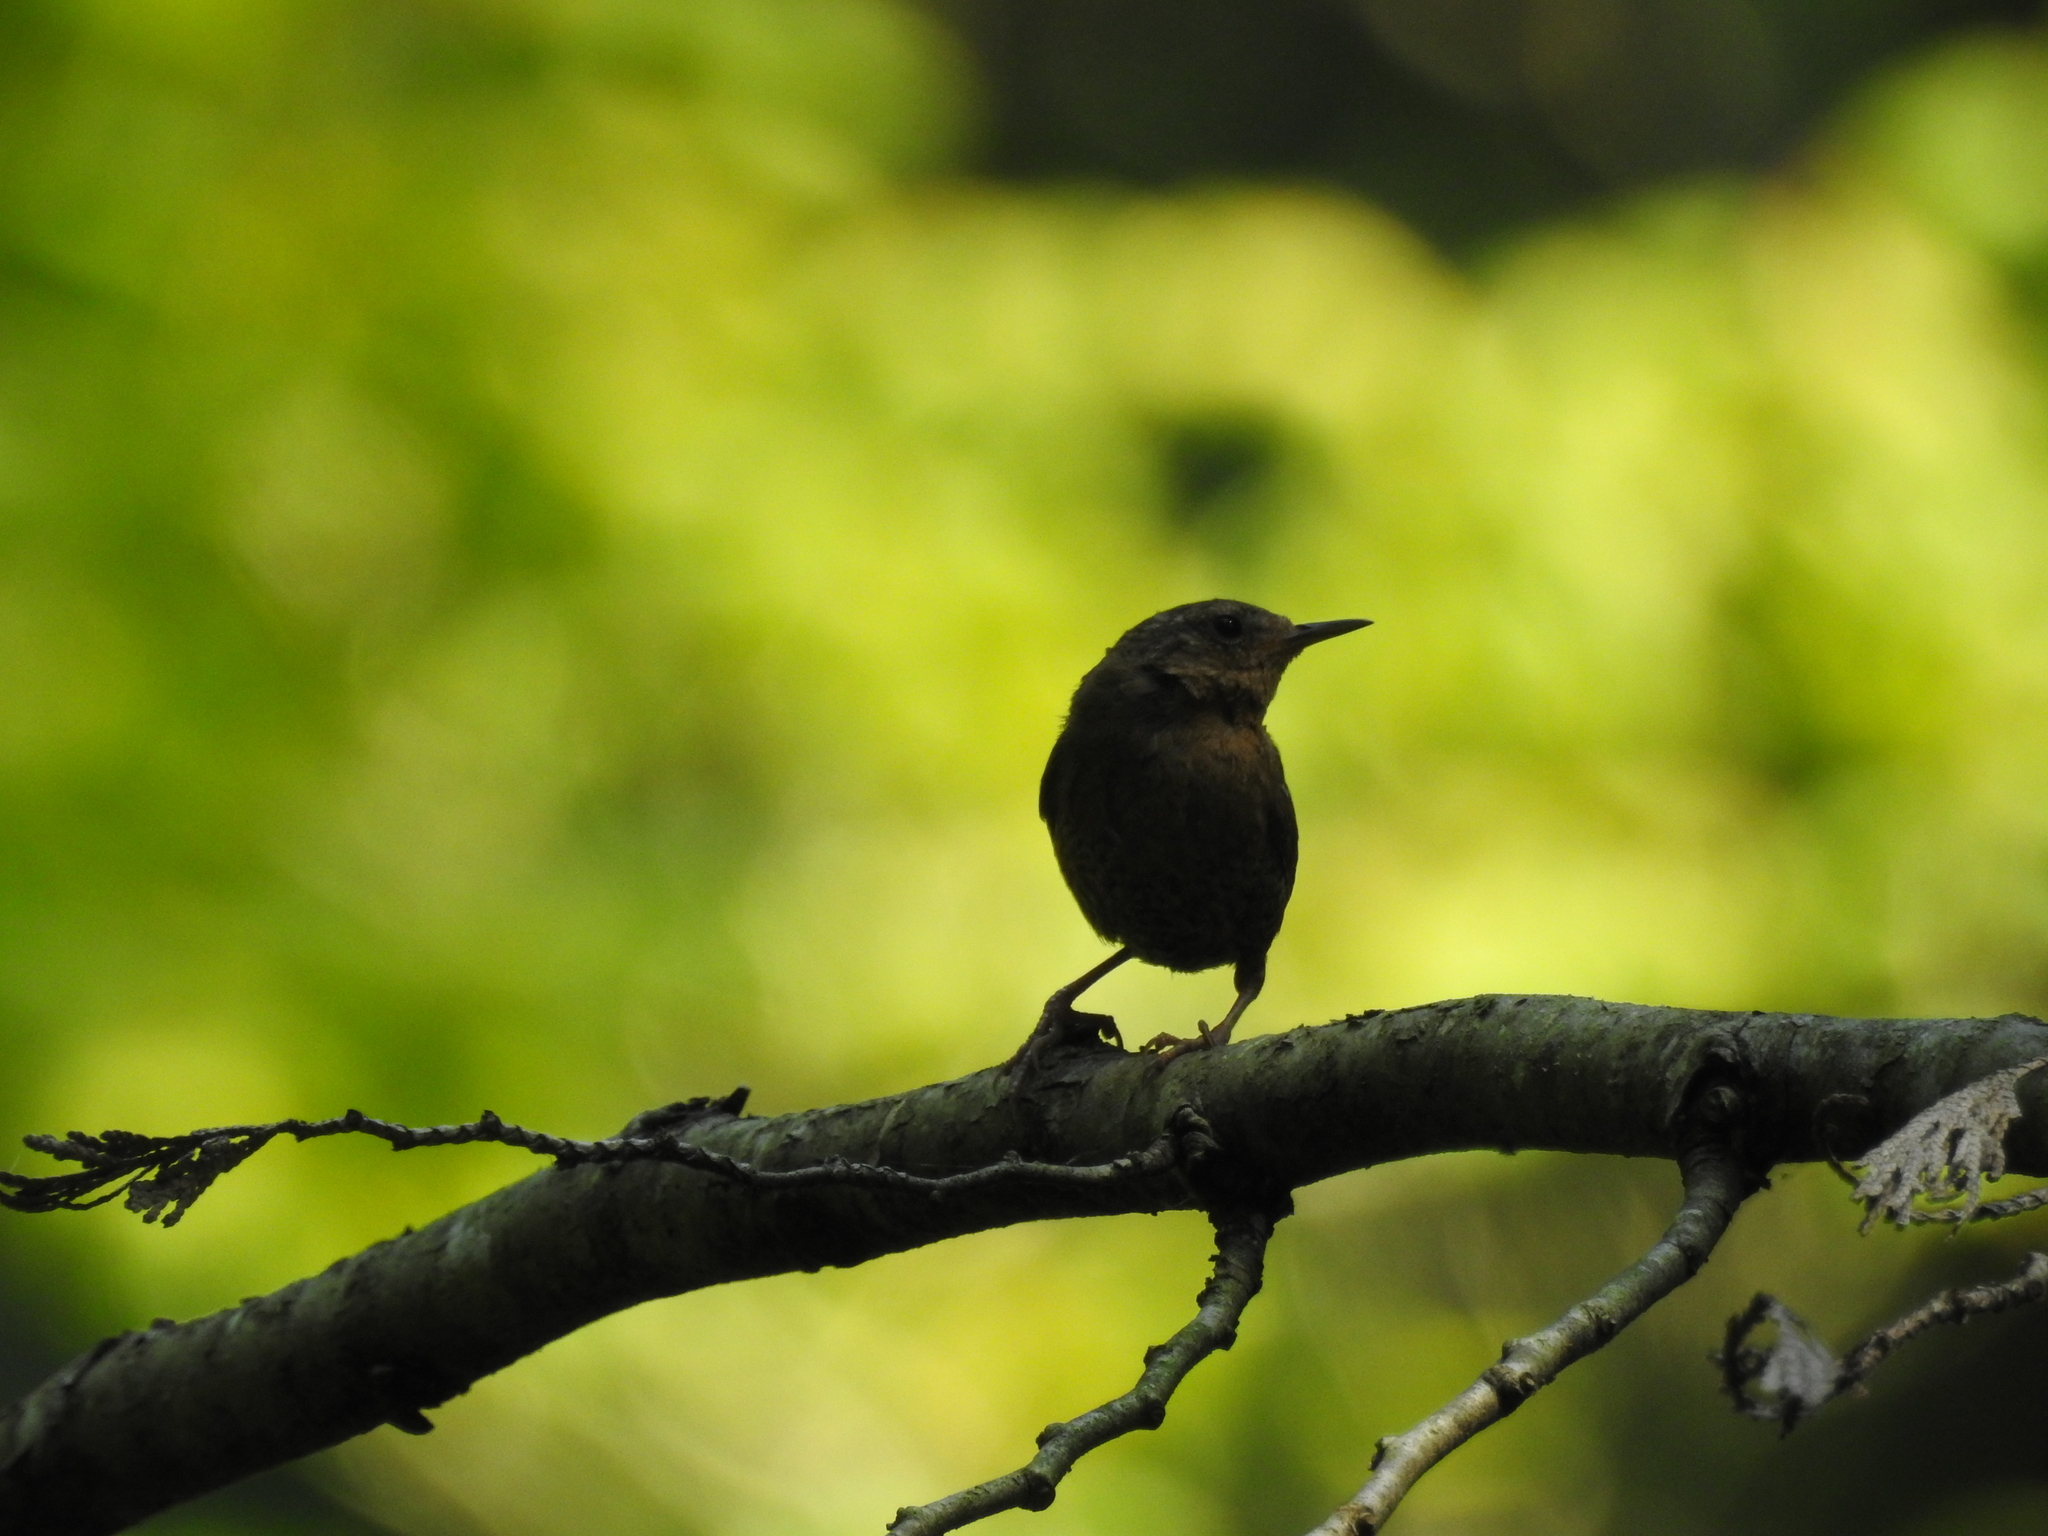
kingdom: Animalia
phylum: Chordata
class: Aves
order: Passeriformes
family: Troglodytidae
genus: Troglodytes
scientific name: Troglodytes pacificus
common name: Pacific wren
